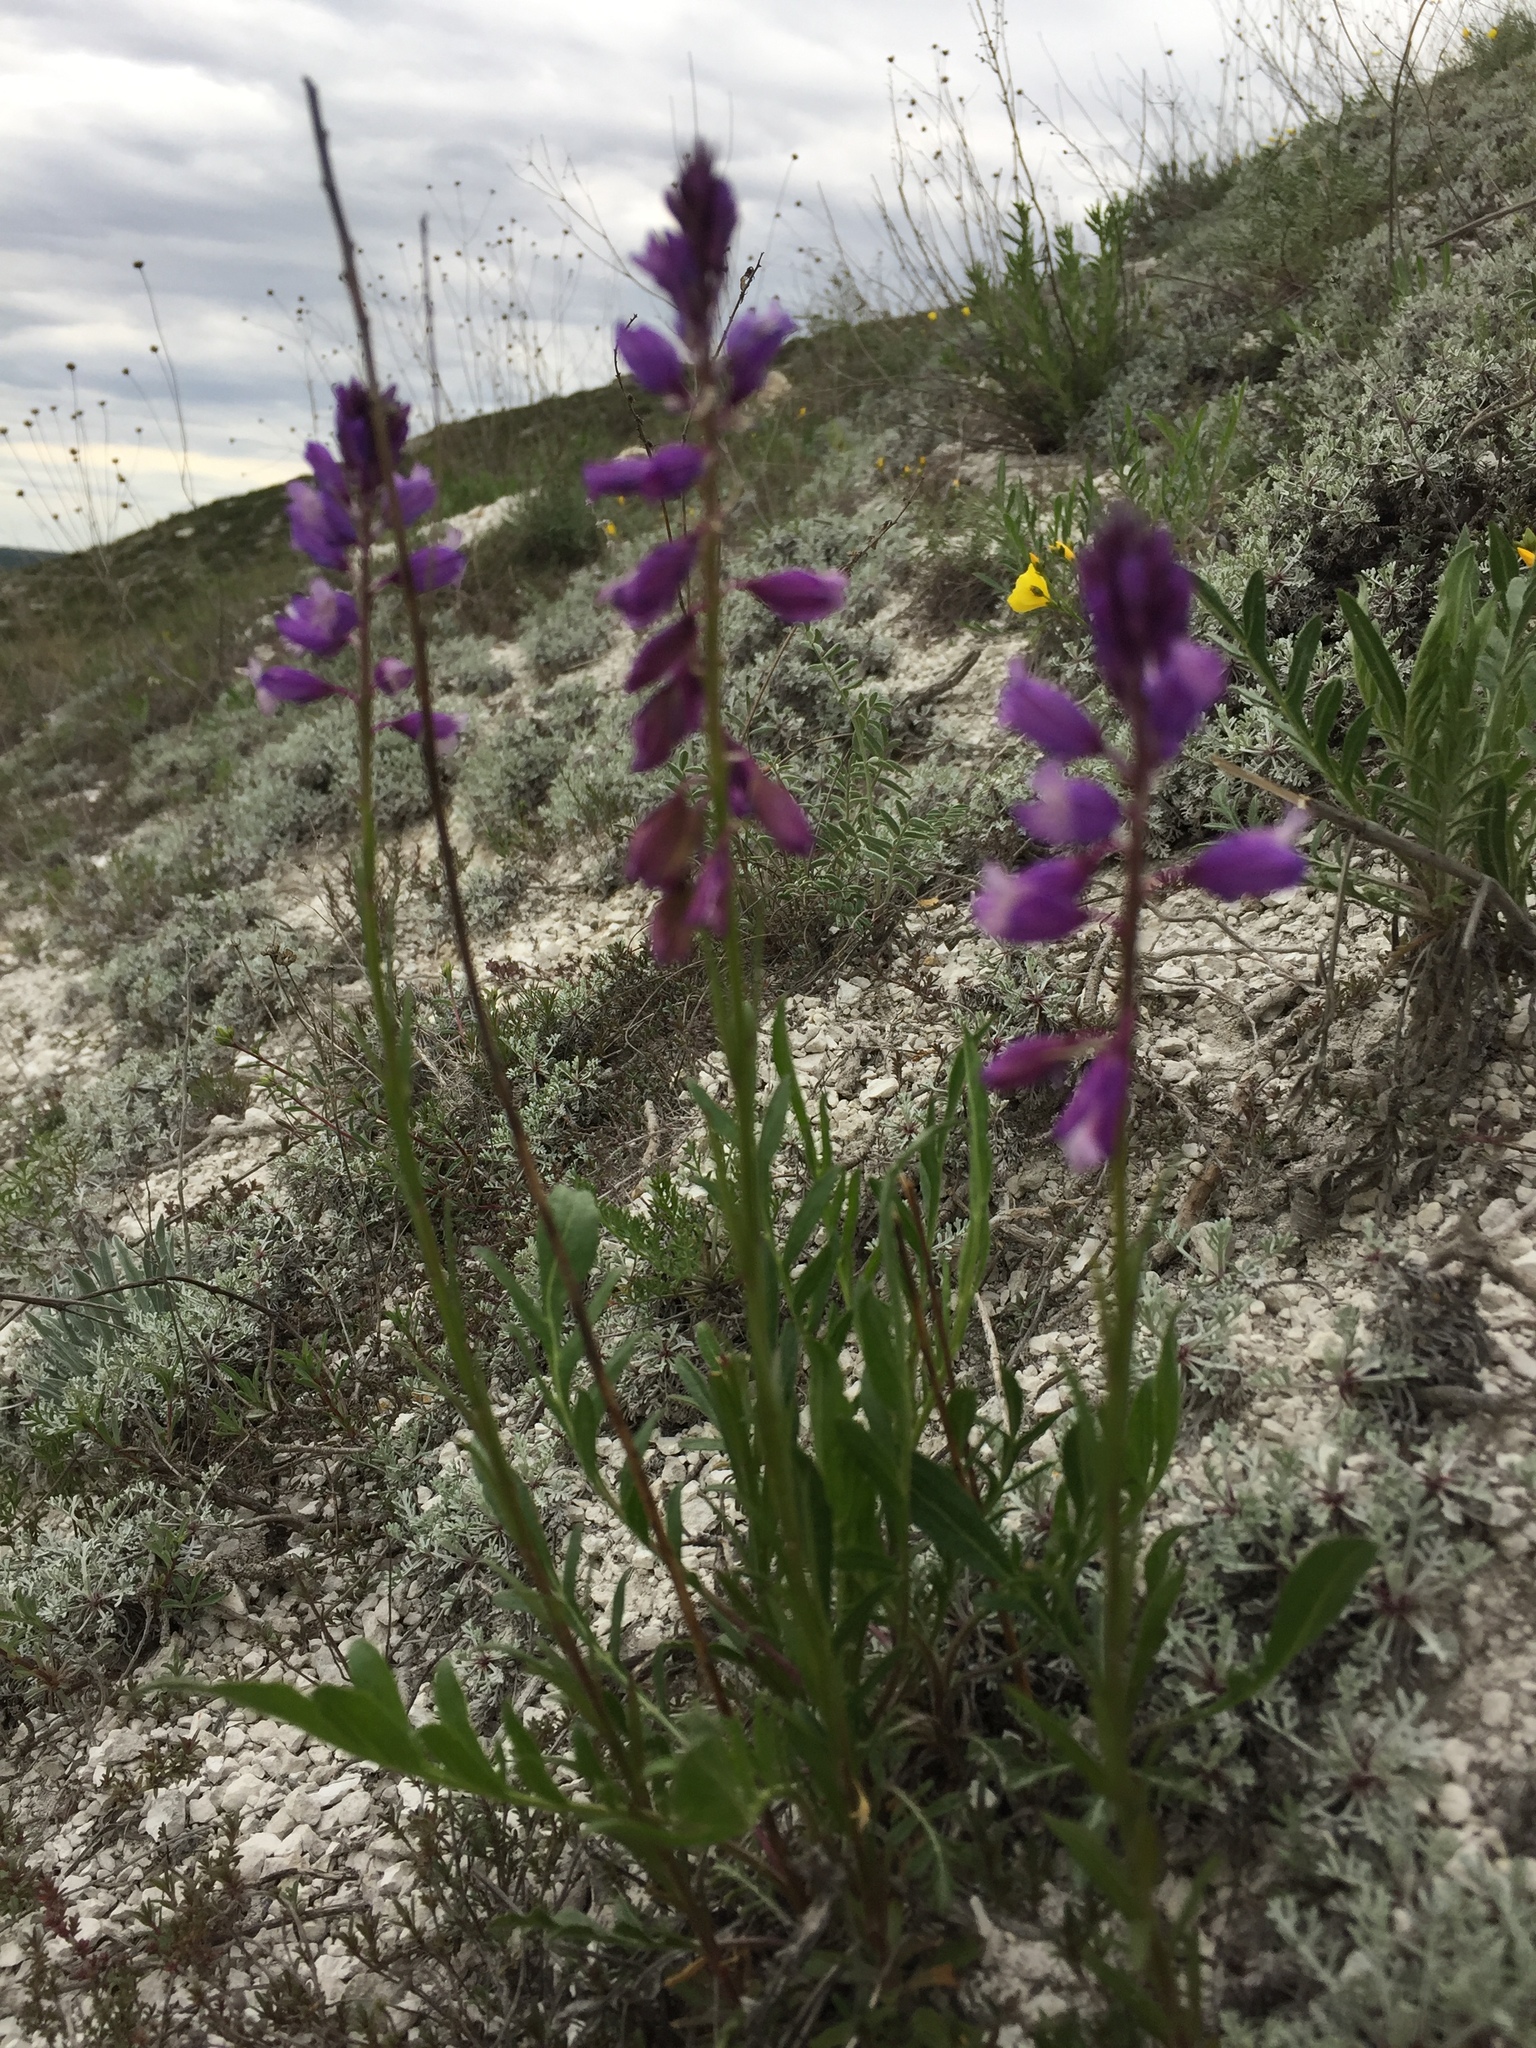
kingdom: Plantae
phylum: Tracheophyta
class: Magnoliopsida
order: Fabales
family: Polygalaceae
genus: Polygala
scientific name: Polygala nicaeensis
